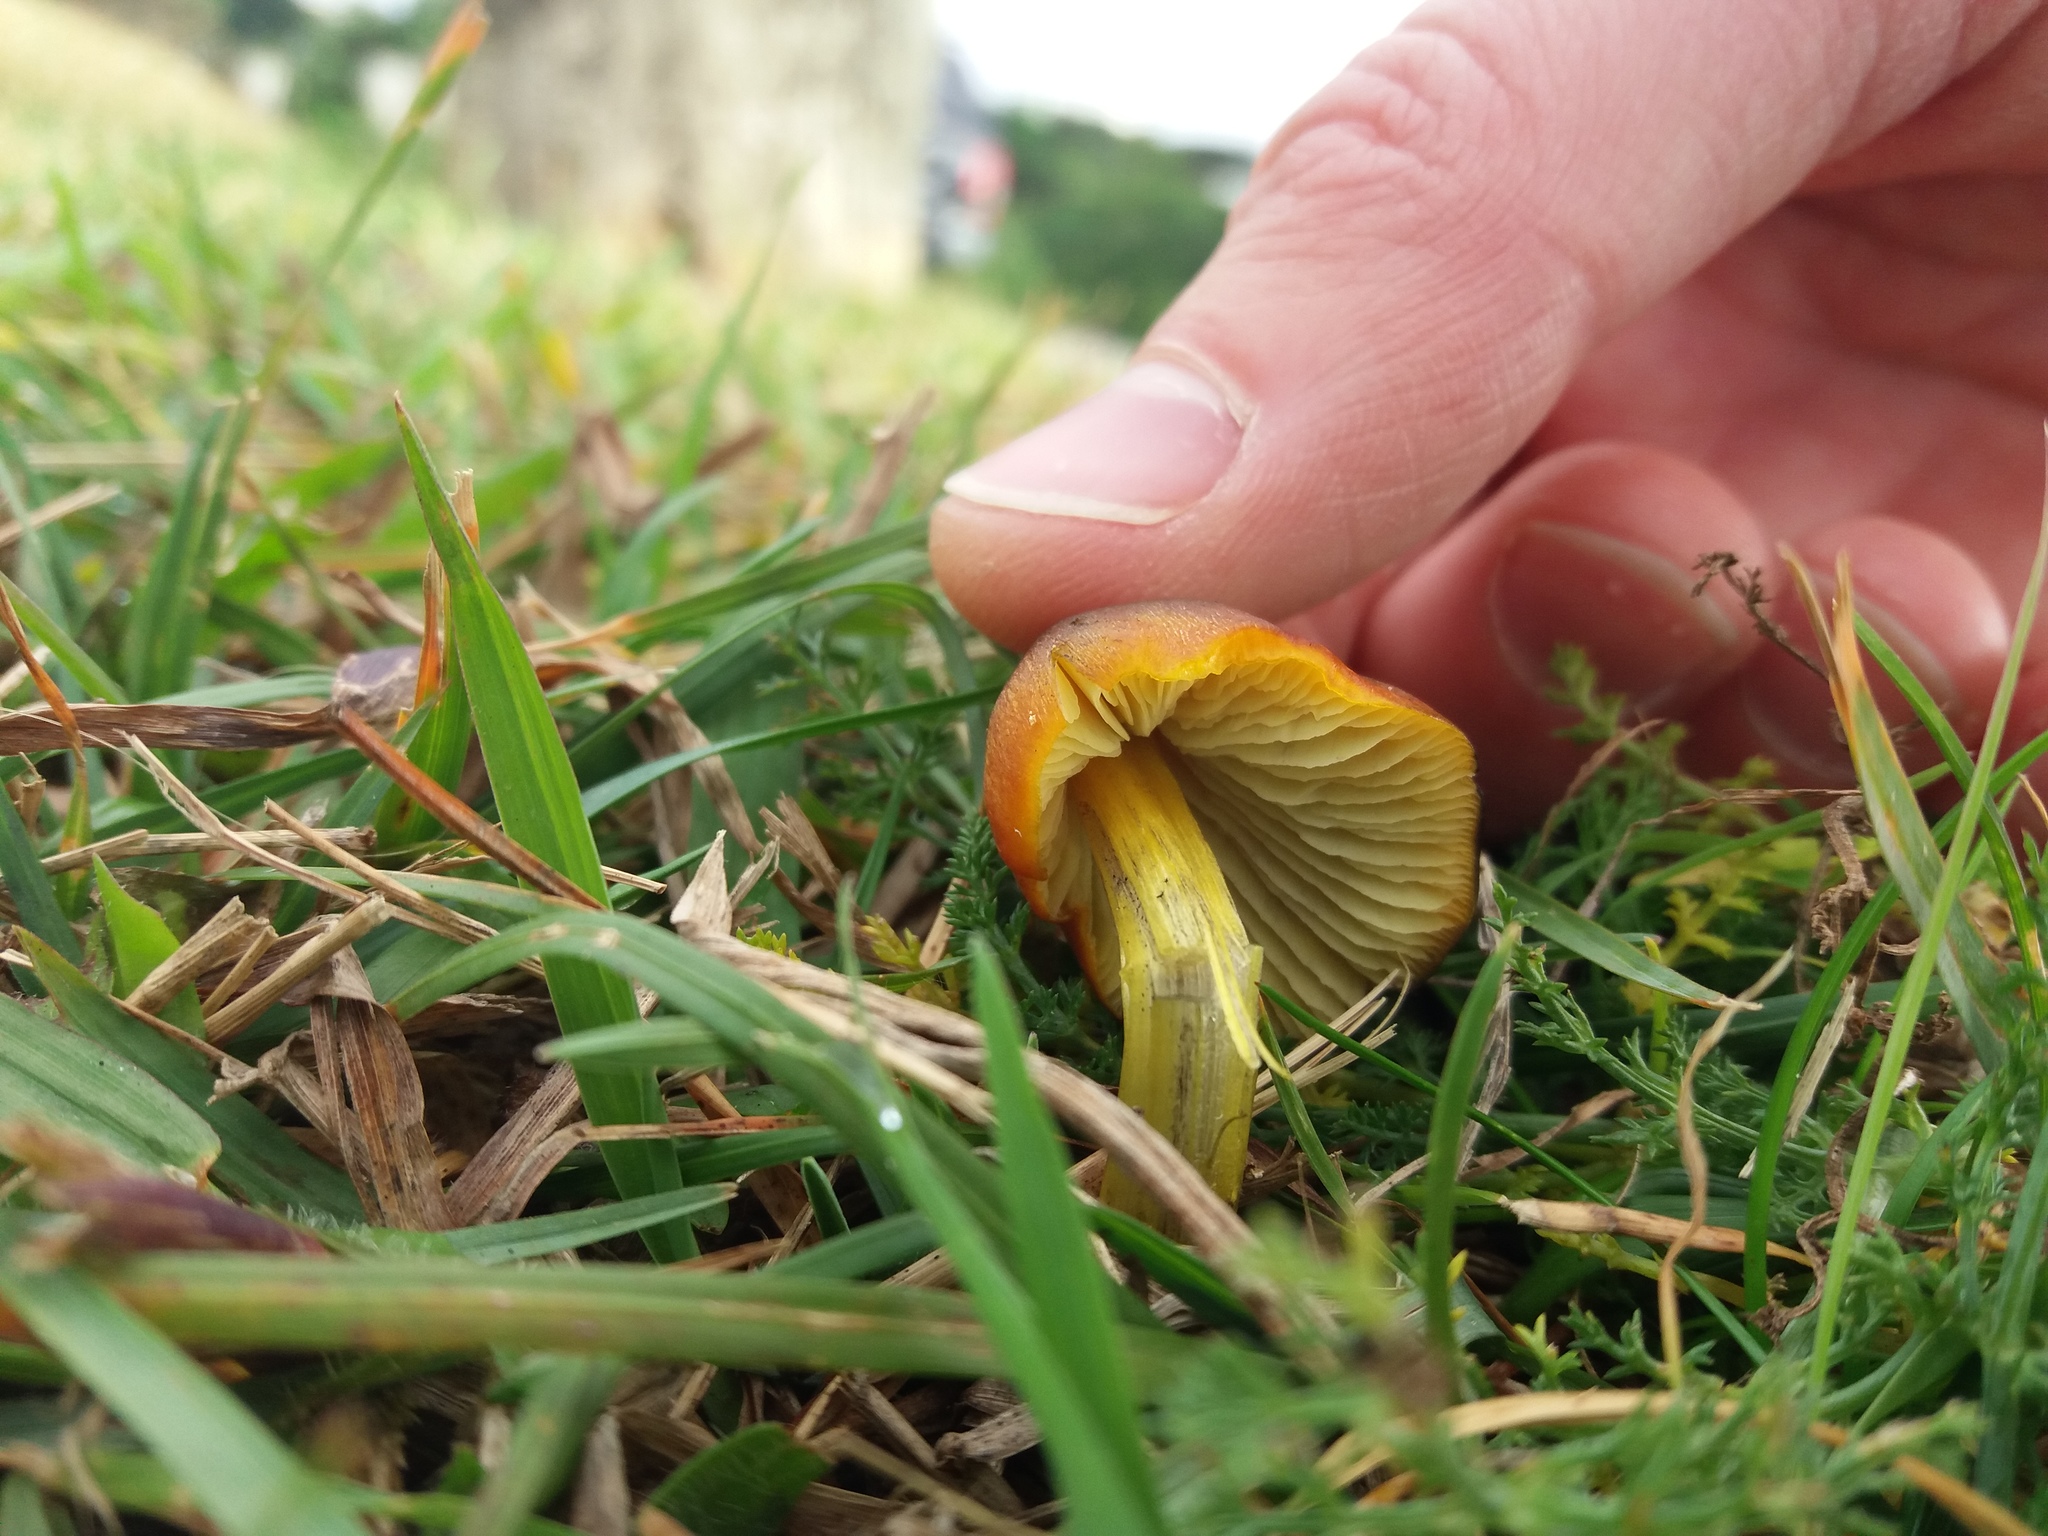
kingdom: Fungi
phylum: Basidiomycota
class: Agaricomycetes
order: Agaricales
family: Hygrophoraceae
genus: Hygrocybe
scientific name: Hygrocybe conica
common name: Blackening wax-cap
